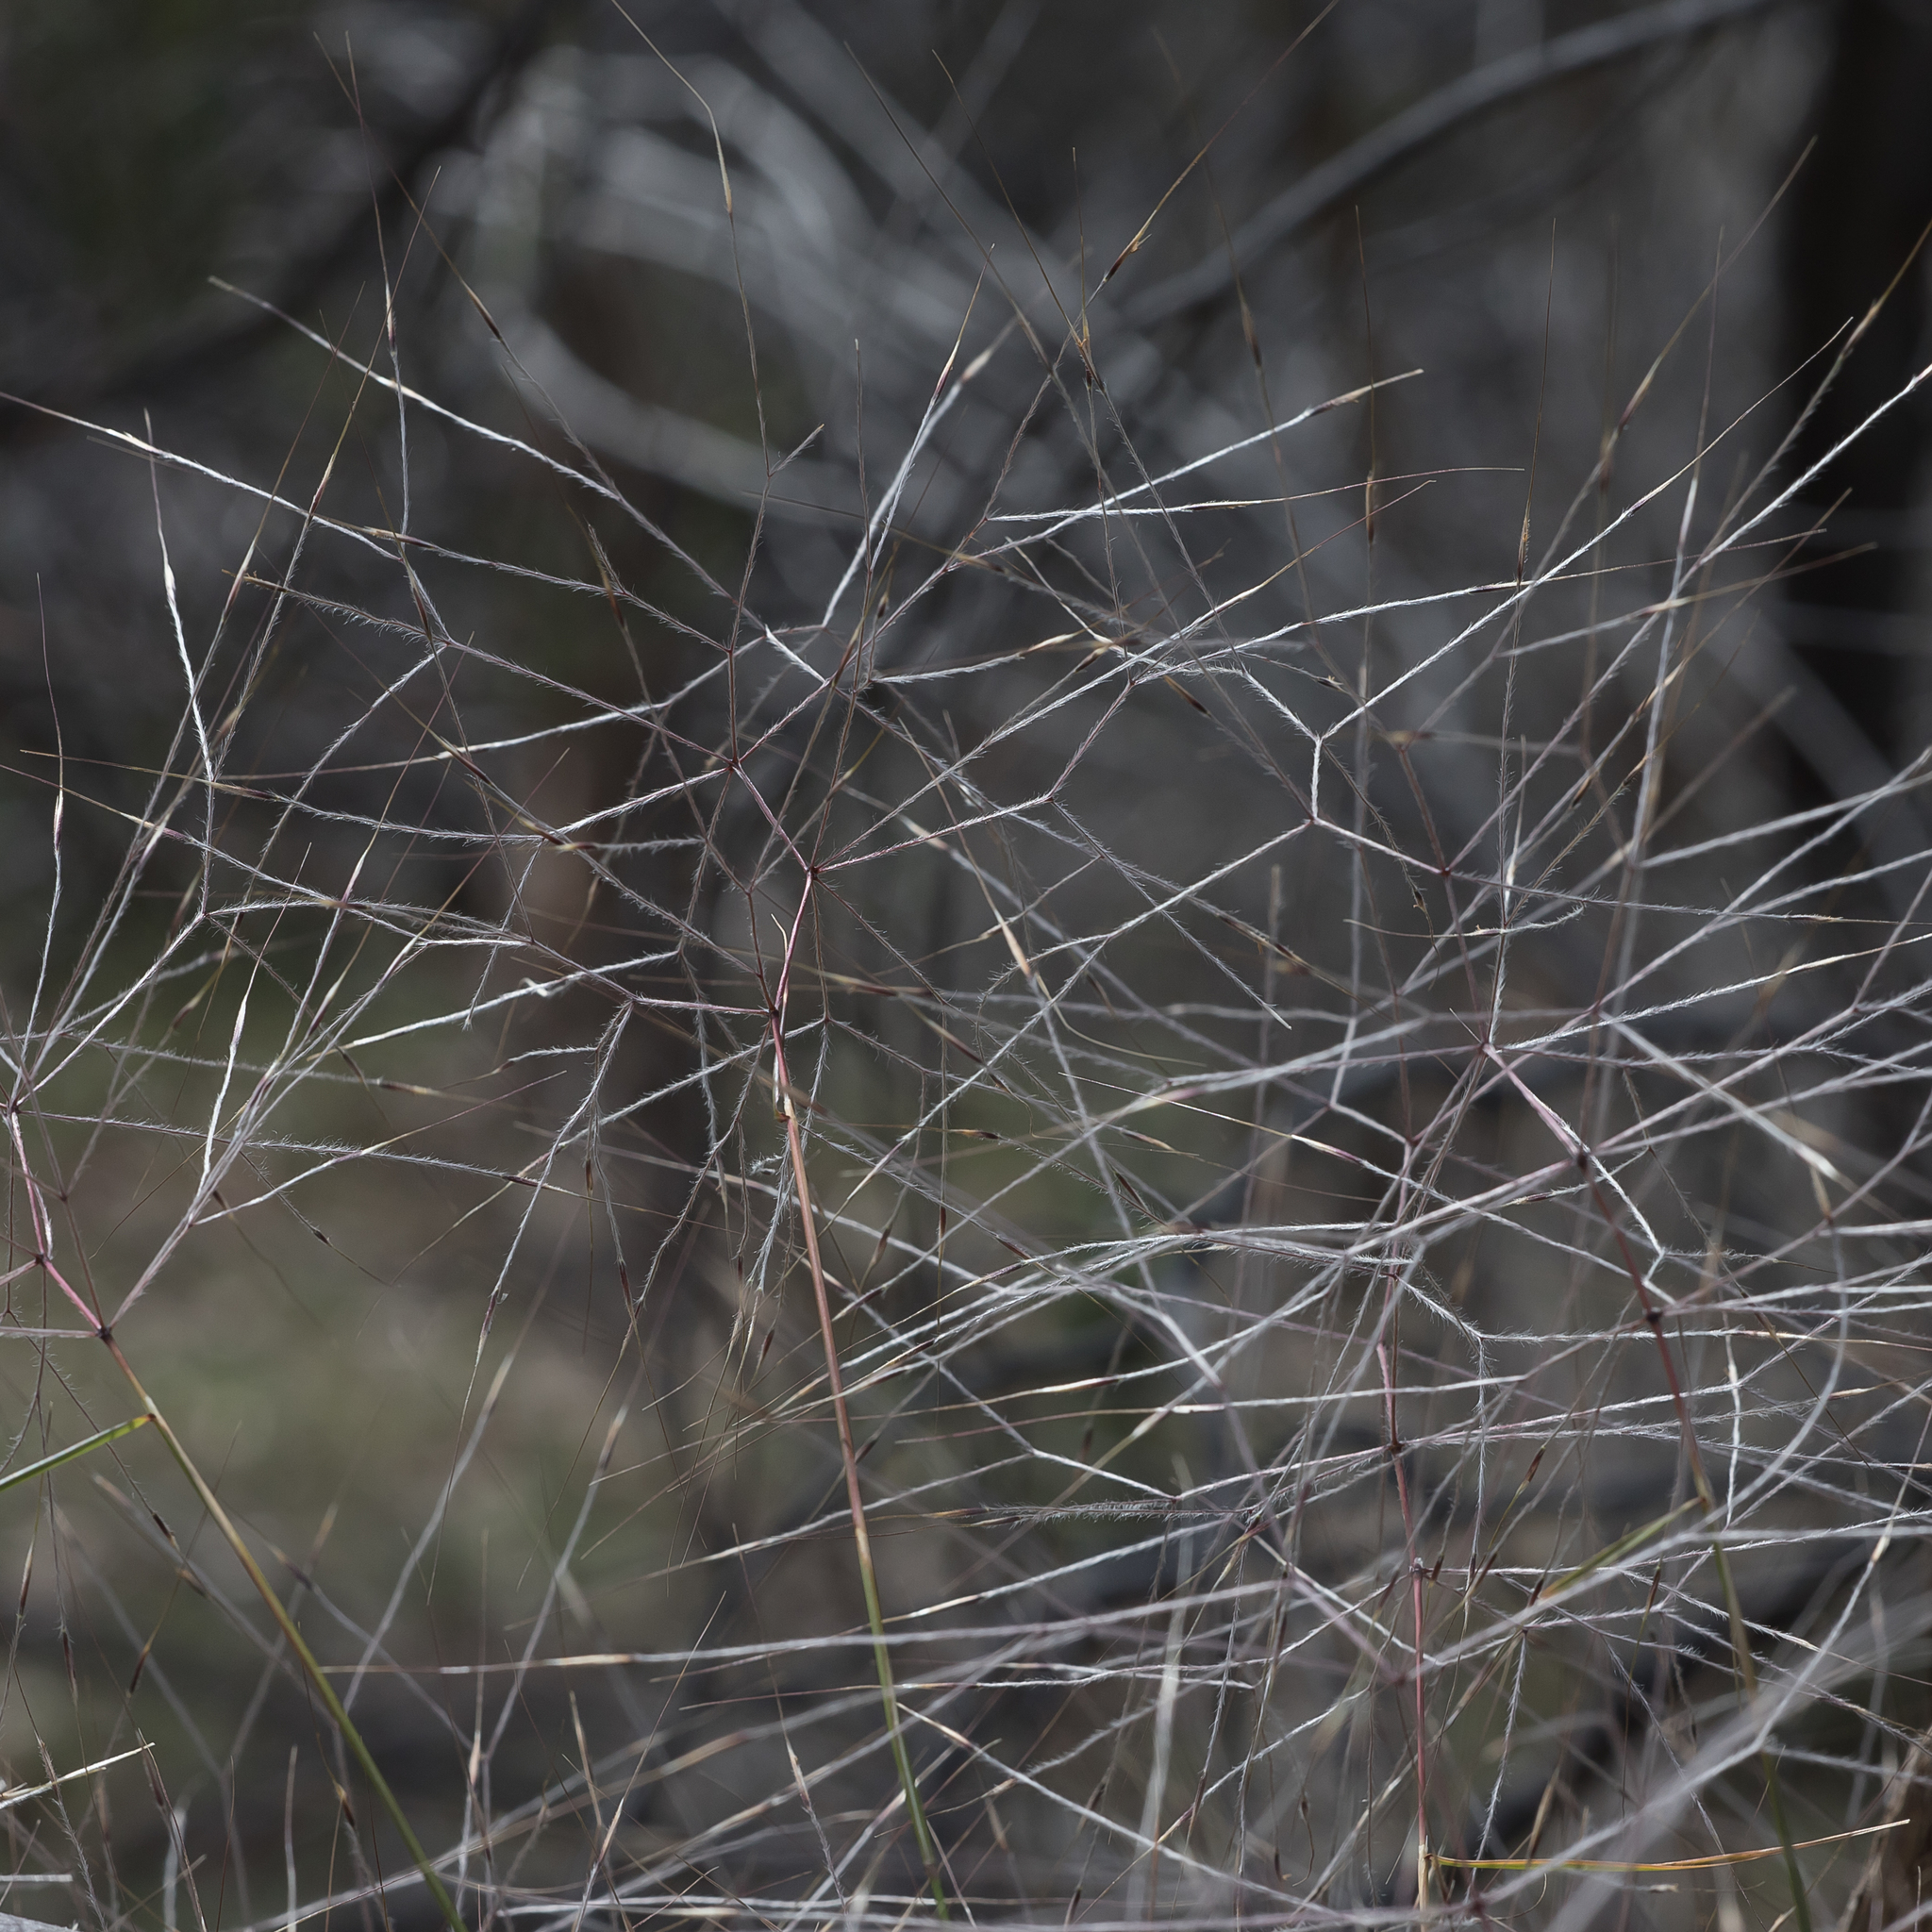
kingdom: Plantae
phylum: Tracheophyta
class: Liliopsida
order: Poales
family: Poaceae
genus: Austrostipa
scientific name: Austrostipa elegantissima
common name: Feather spear grass
